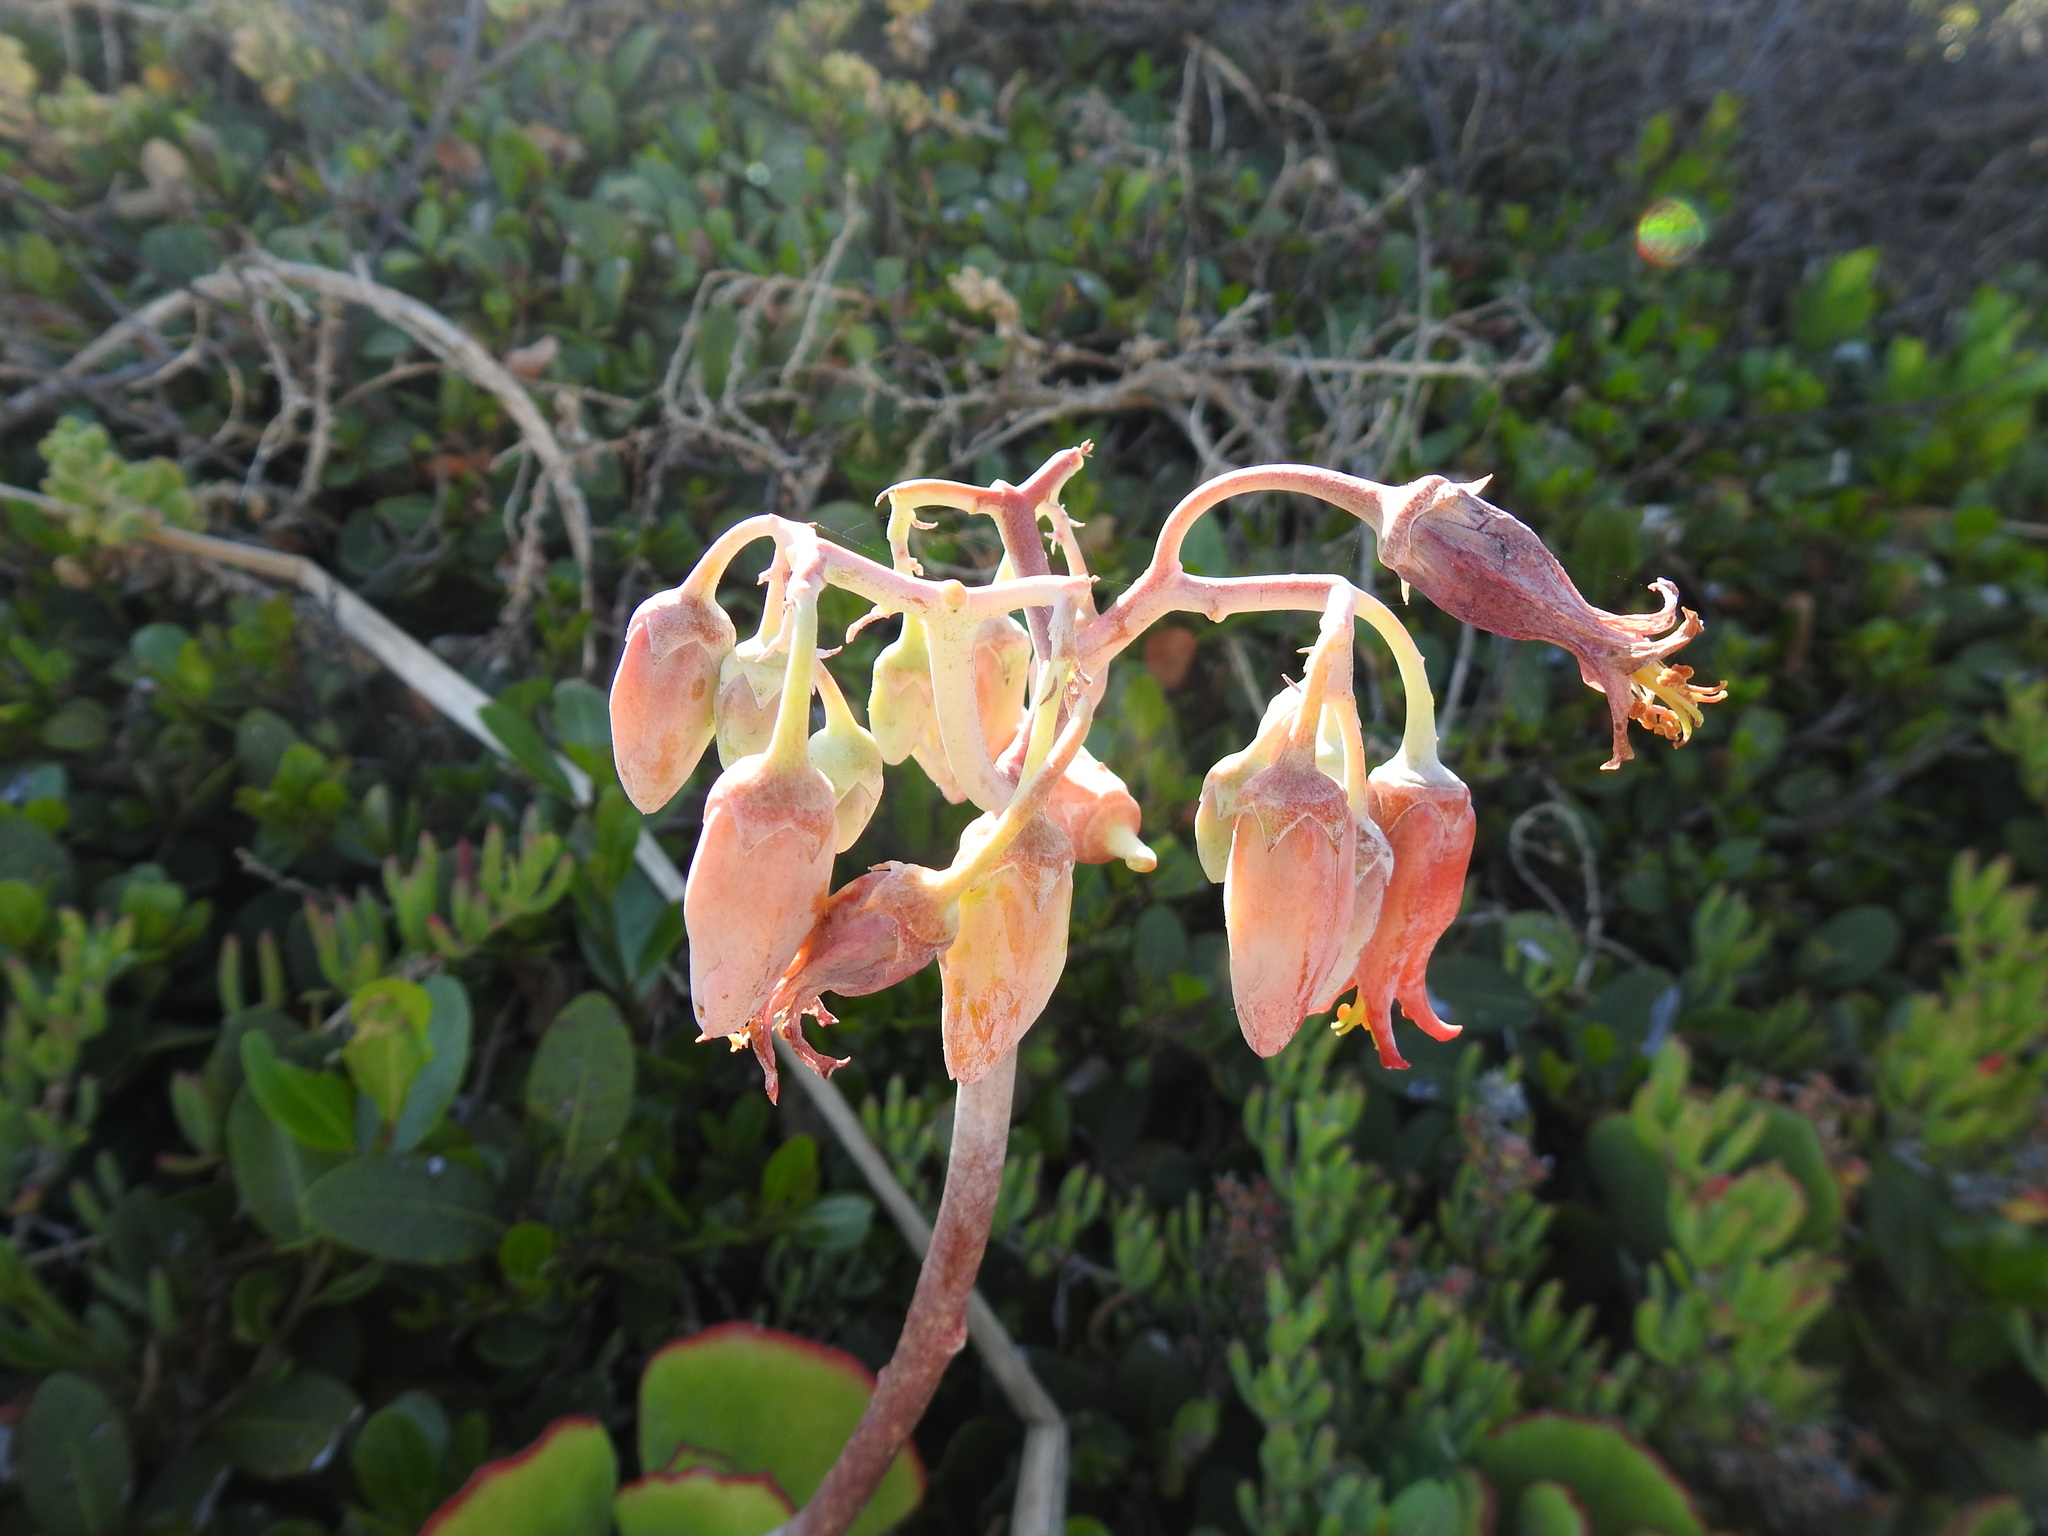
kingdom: Plantae
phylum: Tracheophyta
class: Magnoliopsida
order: Saxifragales
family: Crassulaceae
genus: Cotyledon
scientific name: Cotyledon orbiculata
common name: Pig's ear
